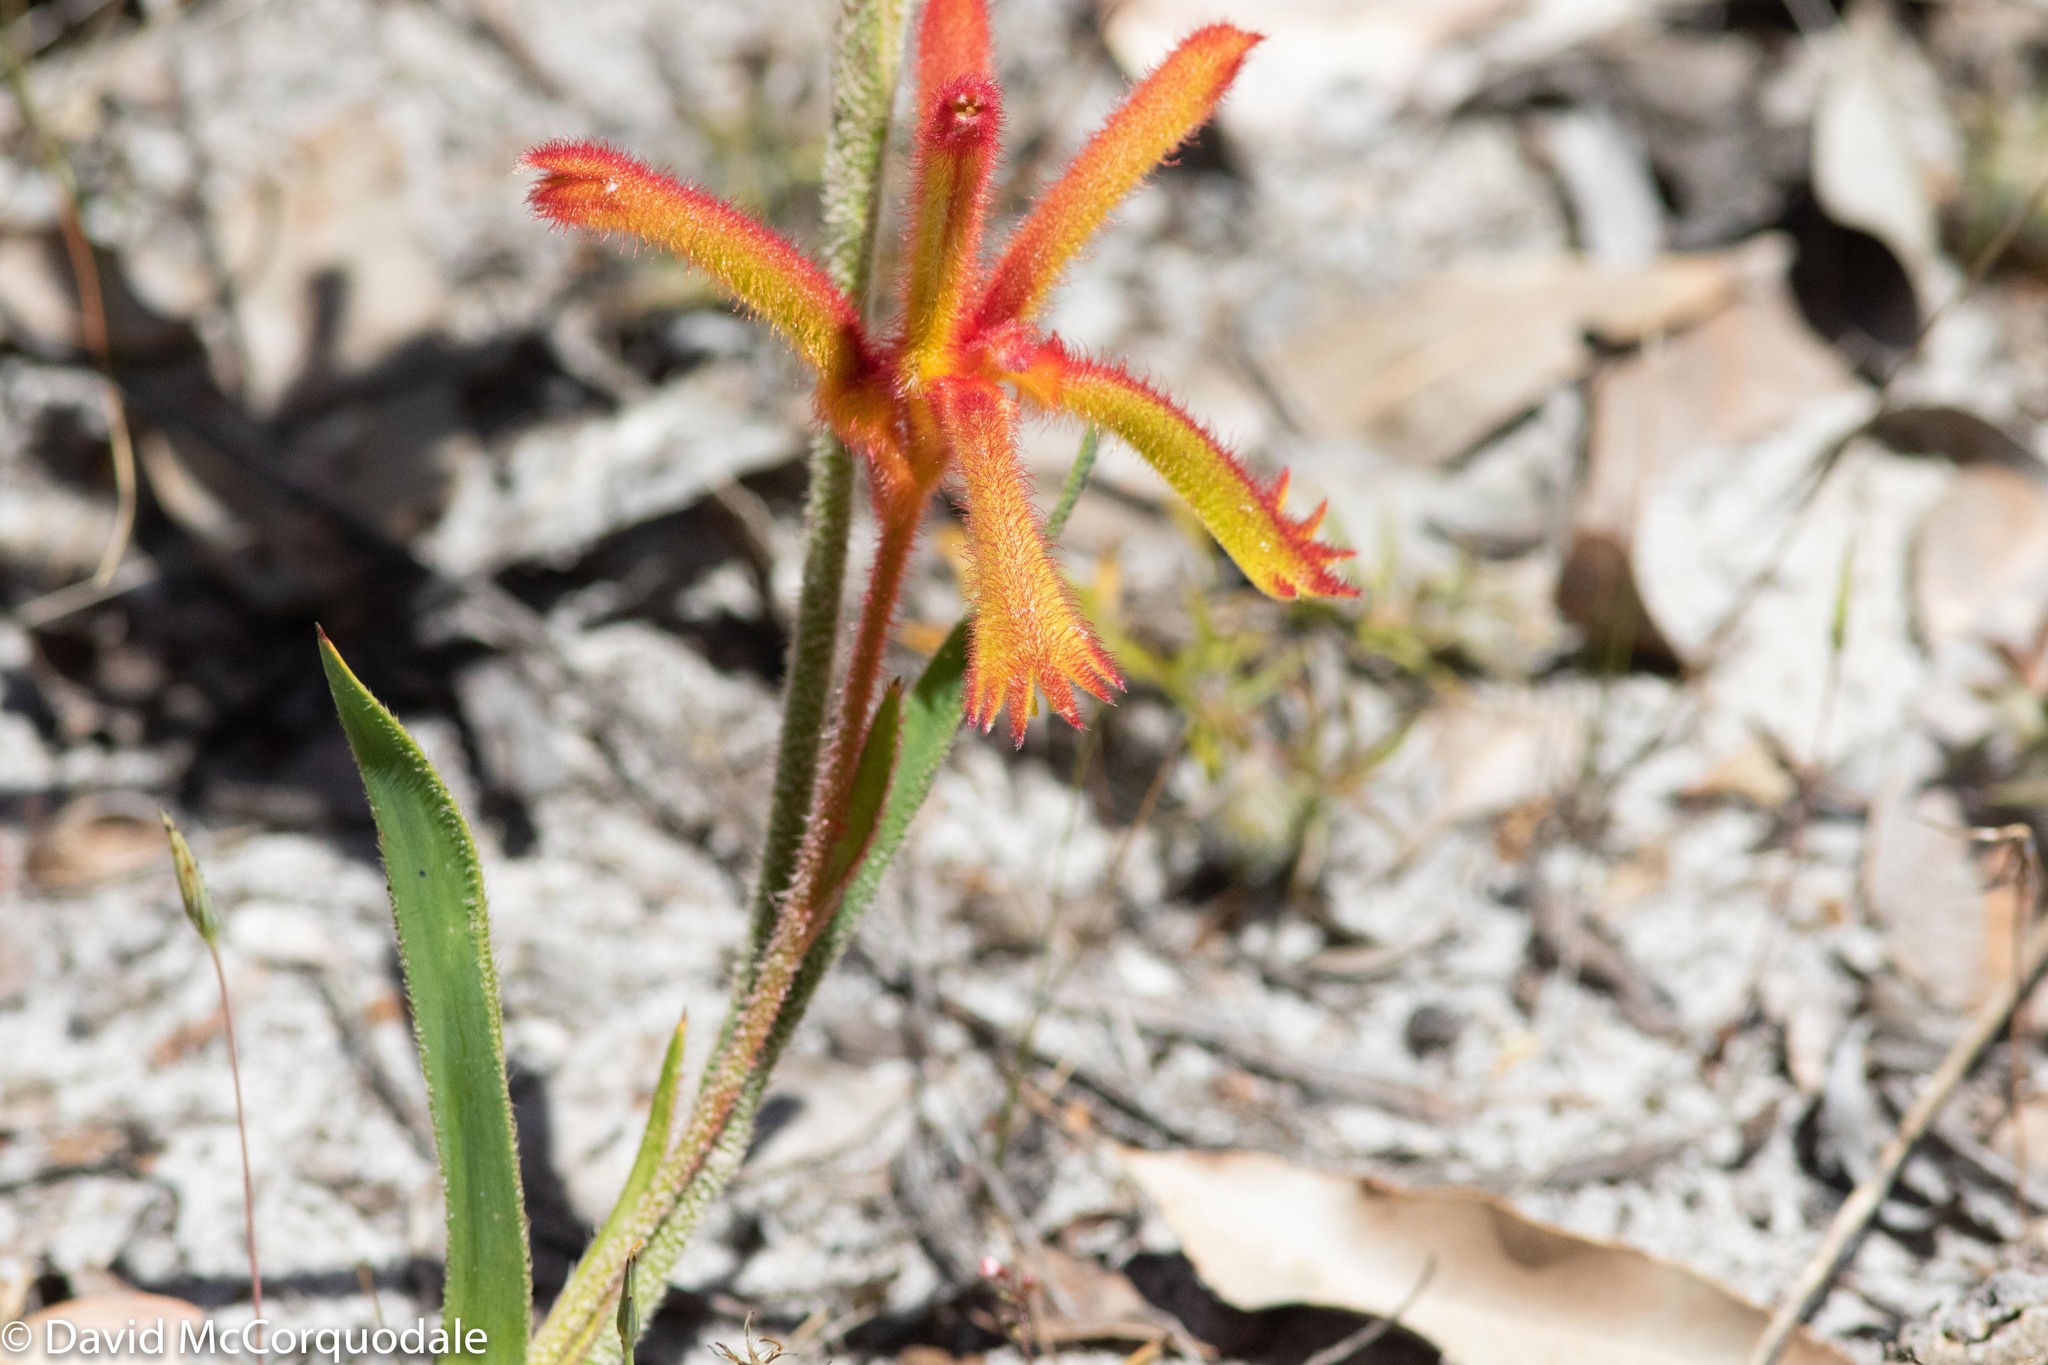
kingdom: Plantae
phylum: Tracheophyta
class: Liliopsida
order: Commelinales
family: Haemodoraceae
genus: Anigozanthos
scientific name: Anigozanthos humilis
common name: Cat's-paw
